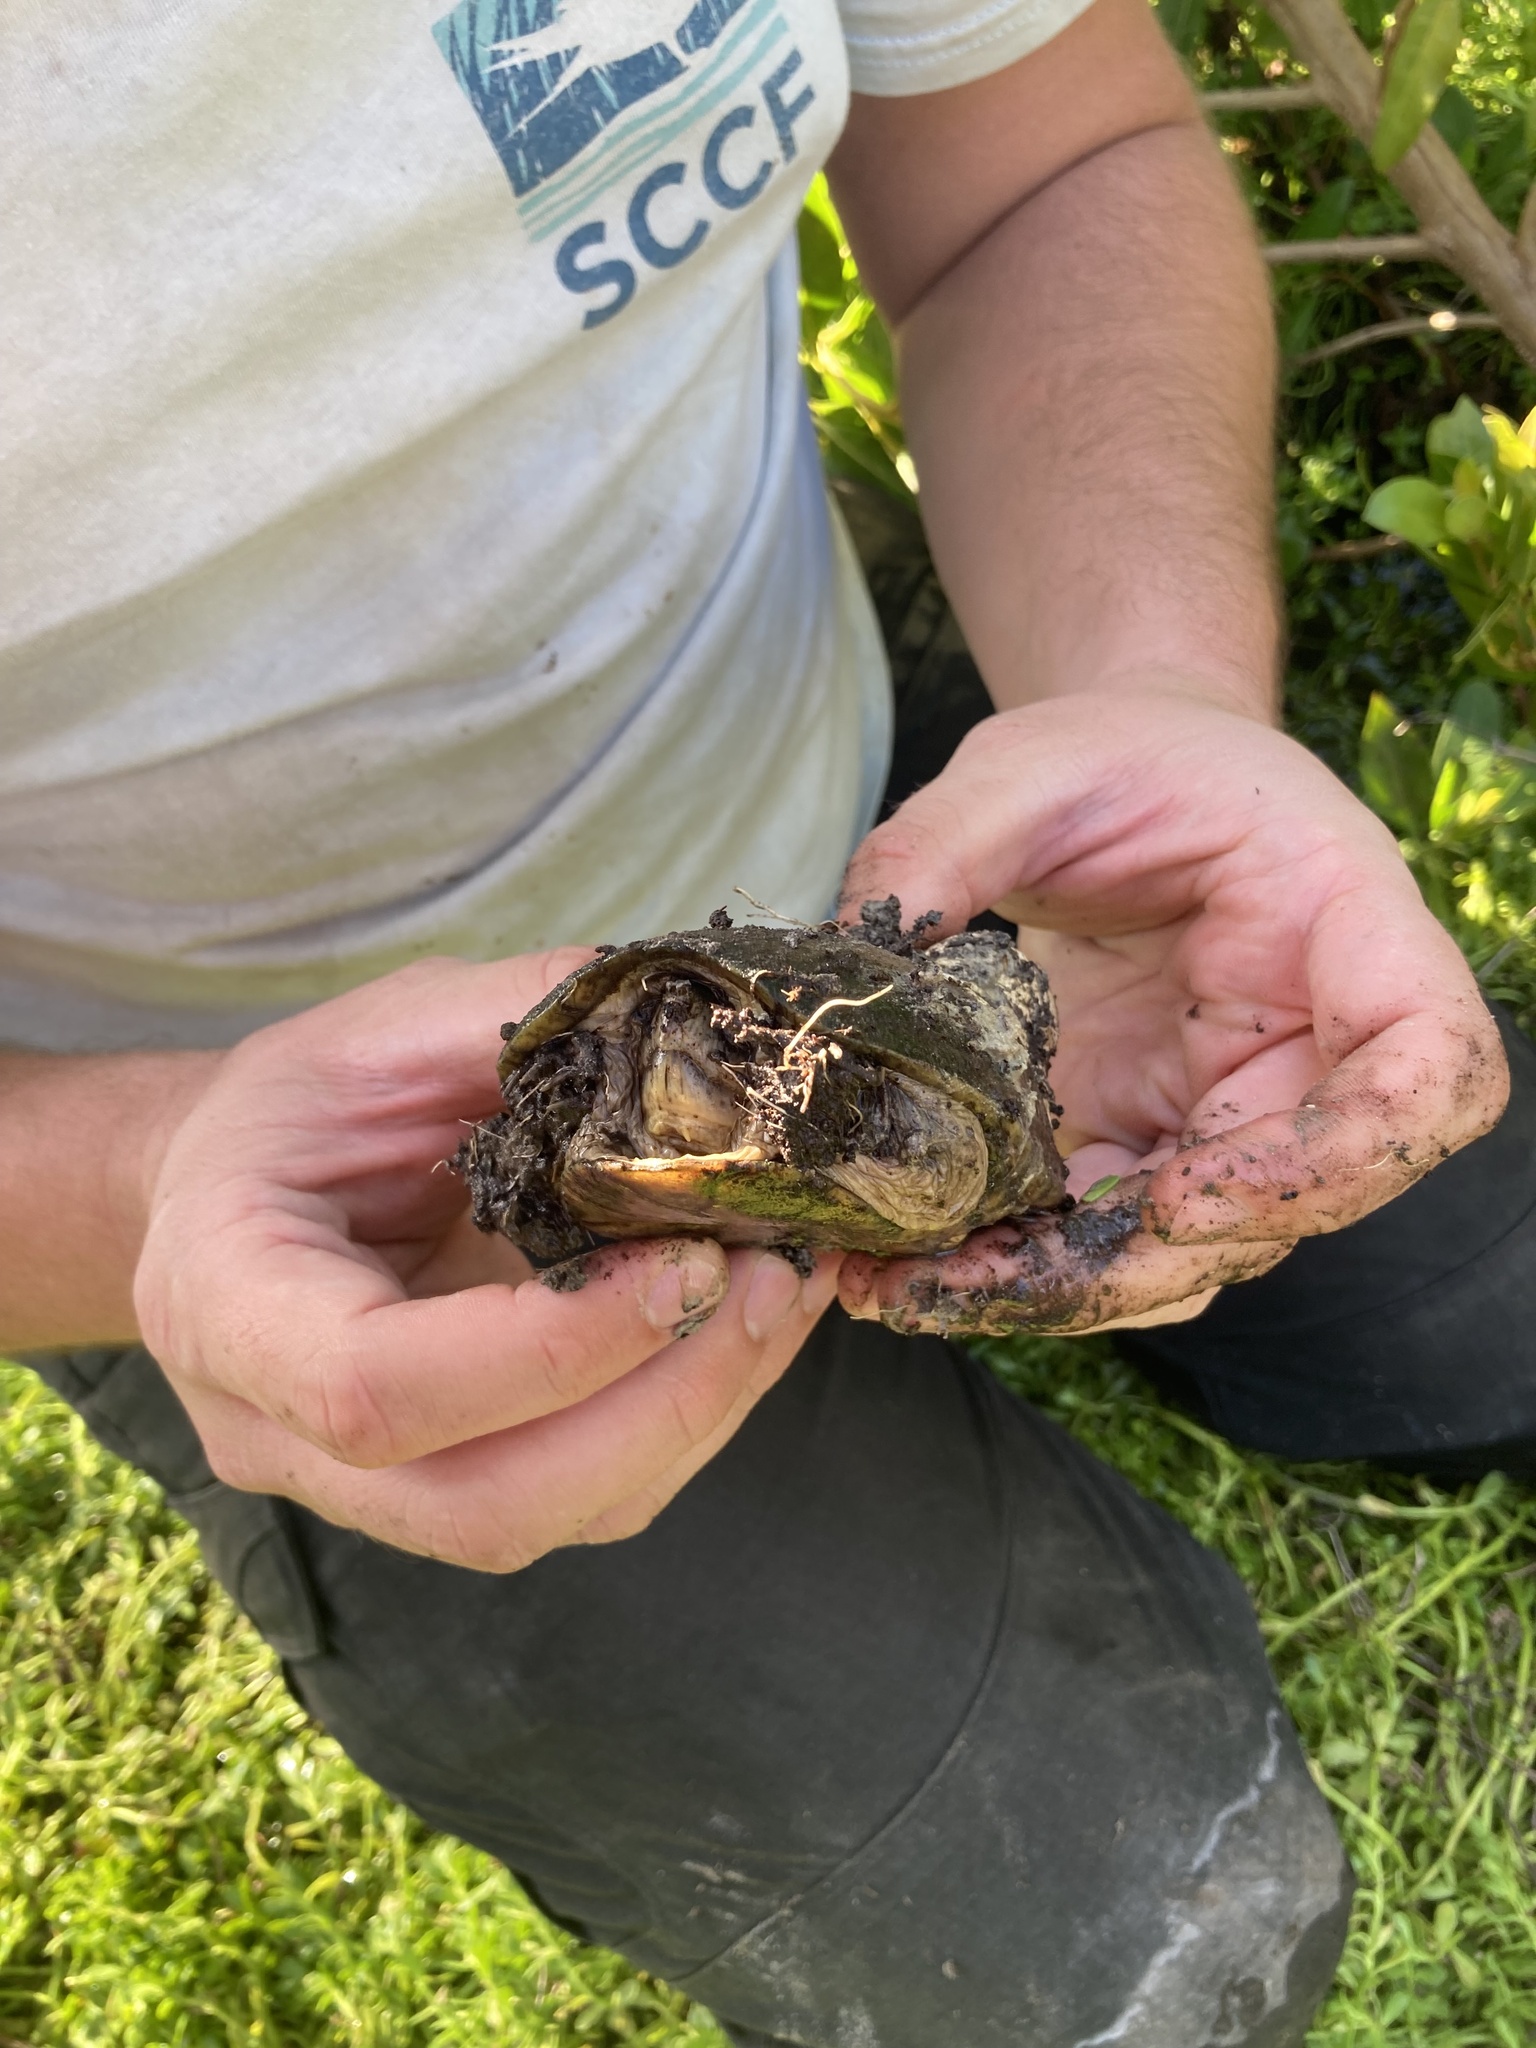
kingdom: Animalia
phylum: Chordata
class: Testudines
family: Kinosternidae
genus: Kinosternon
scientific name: Kinosternon steindachneri
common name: Florida mud turtle
